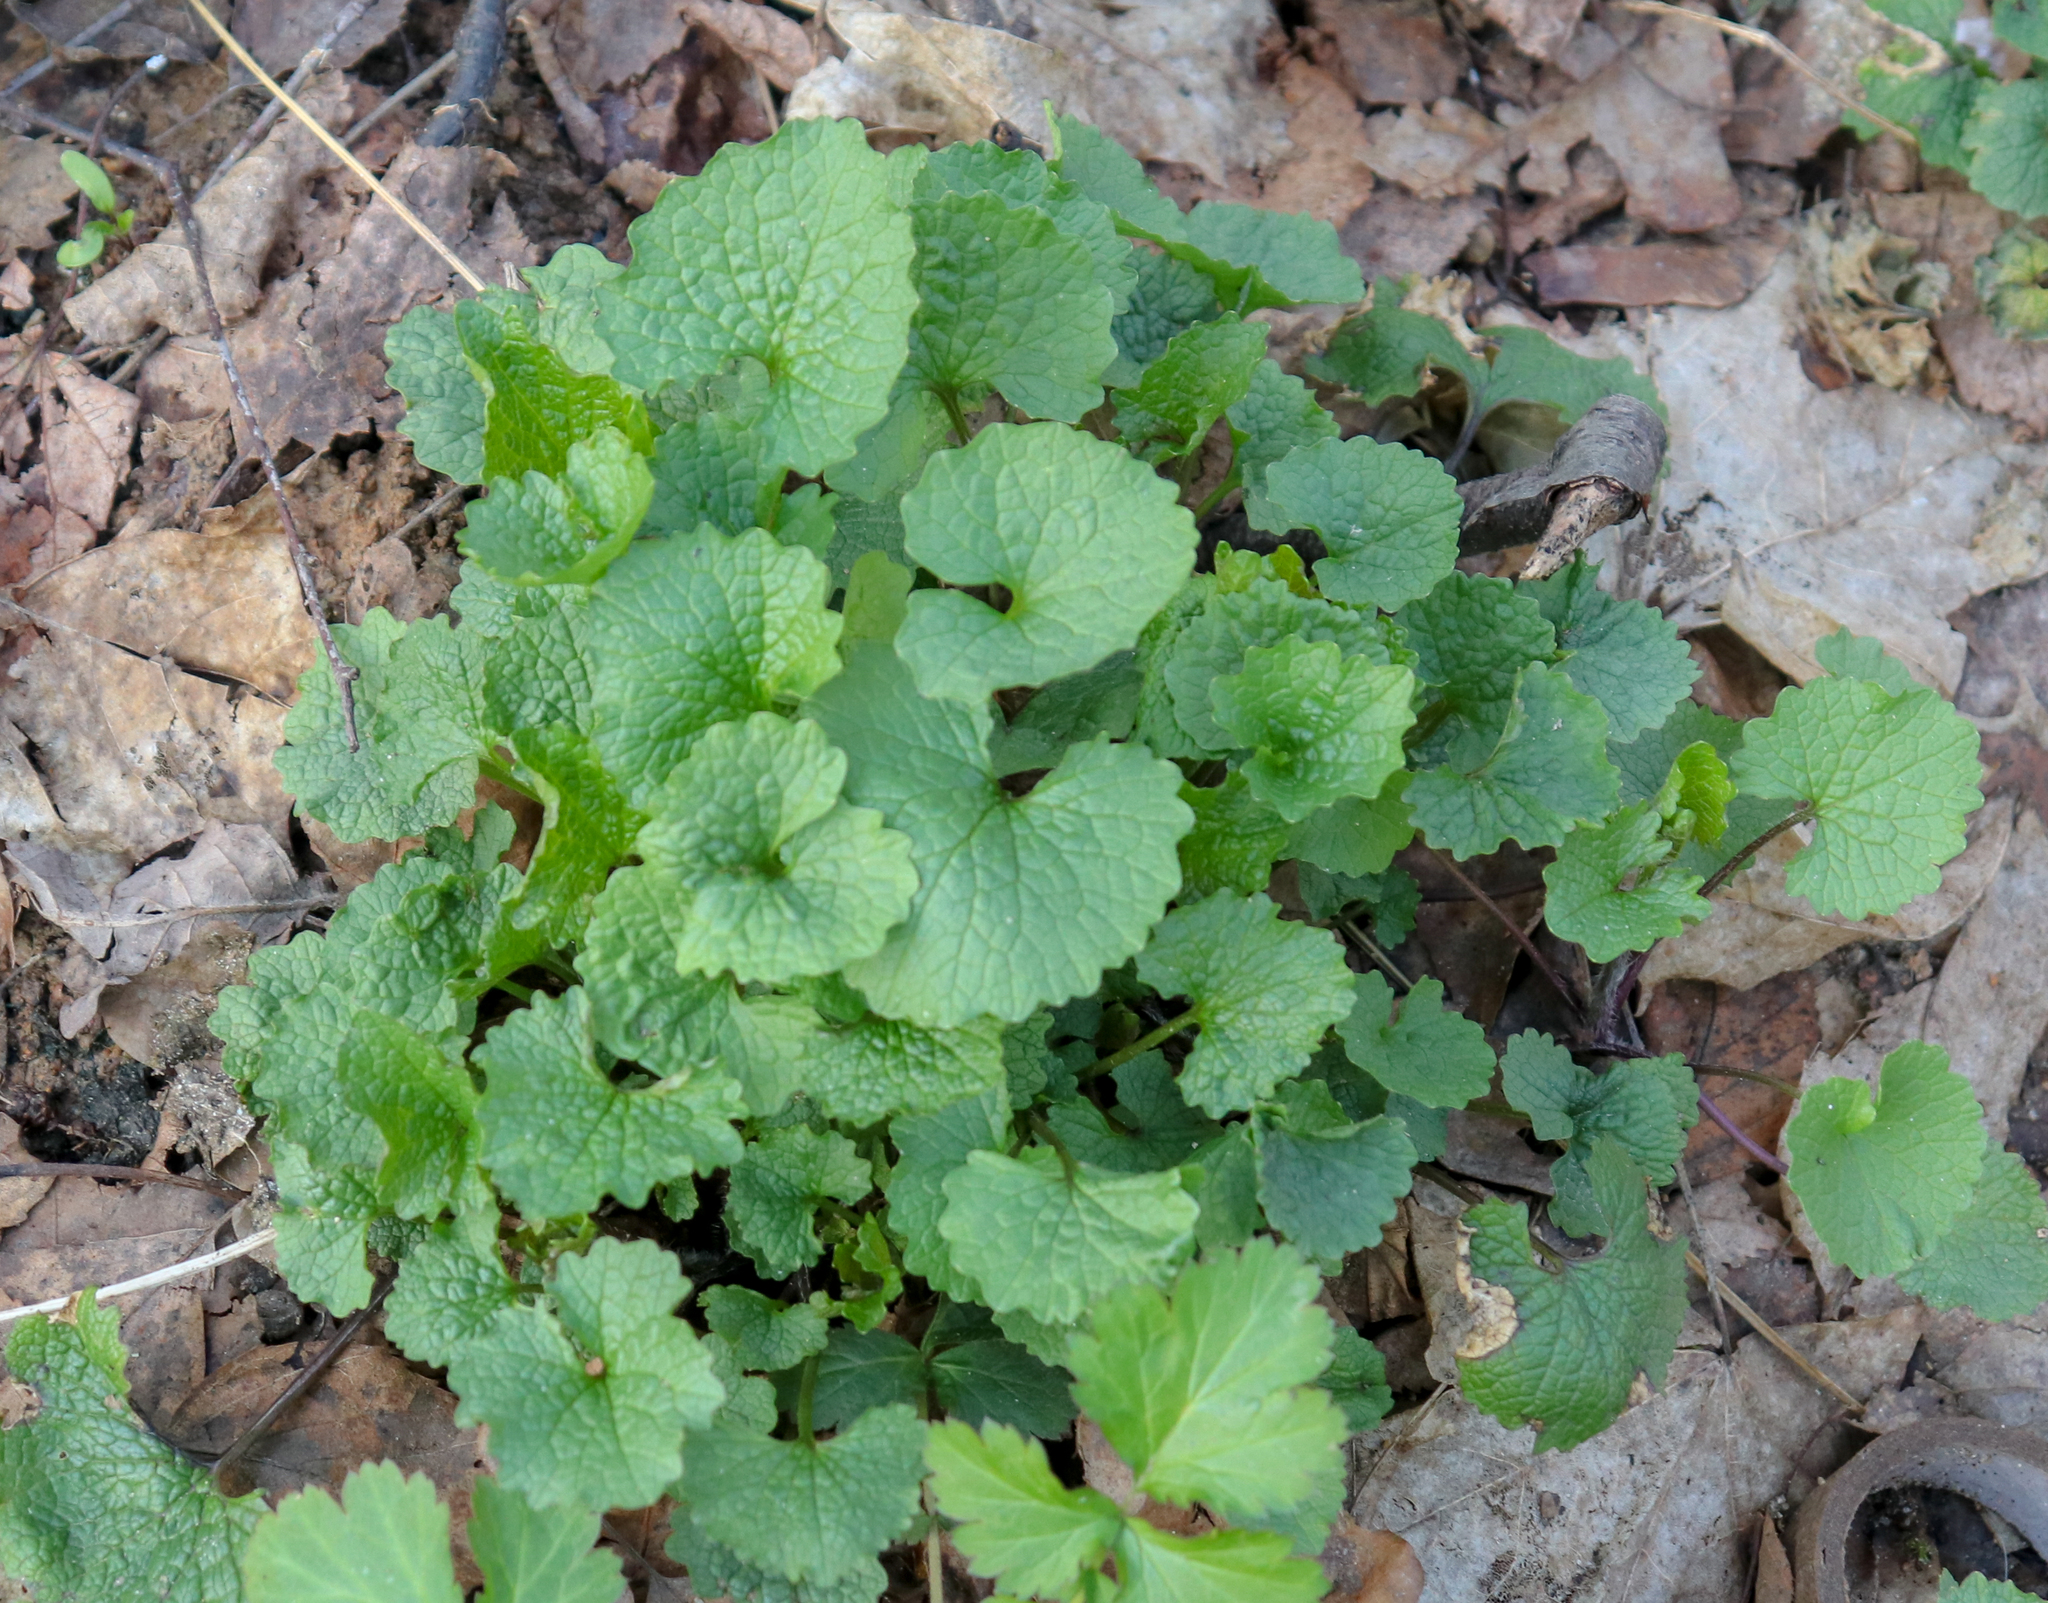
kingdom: Plantae
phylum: Tracheophyta
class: Magnoliopsida
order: Brassicales
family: Brassicaceae
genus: Alliaria
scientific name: Alliaria petiolata
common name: Garlic mustard
